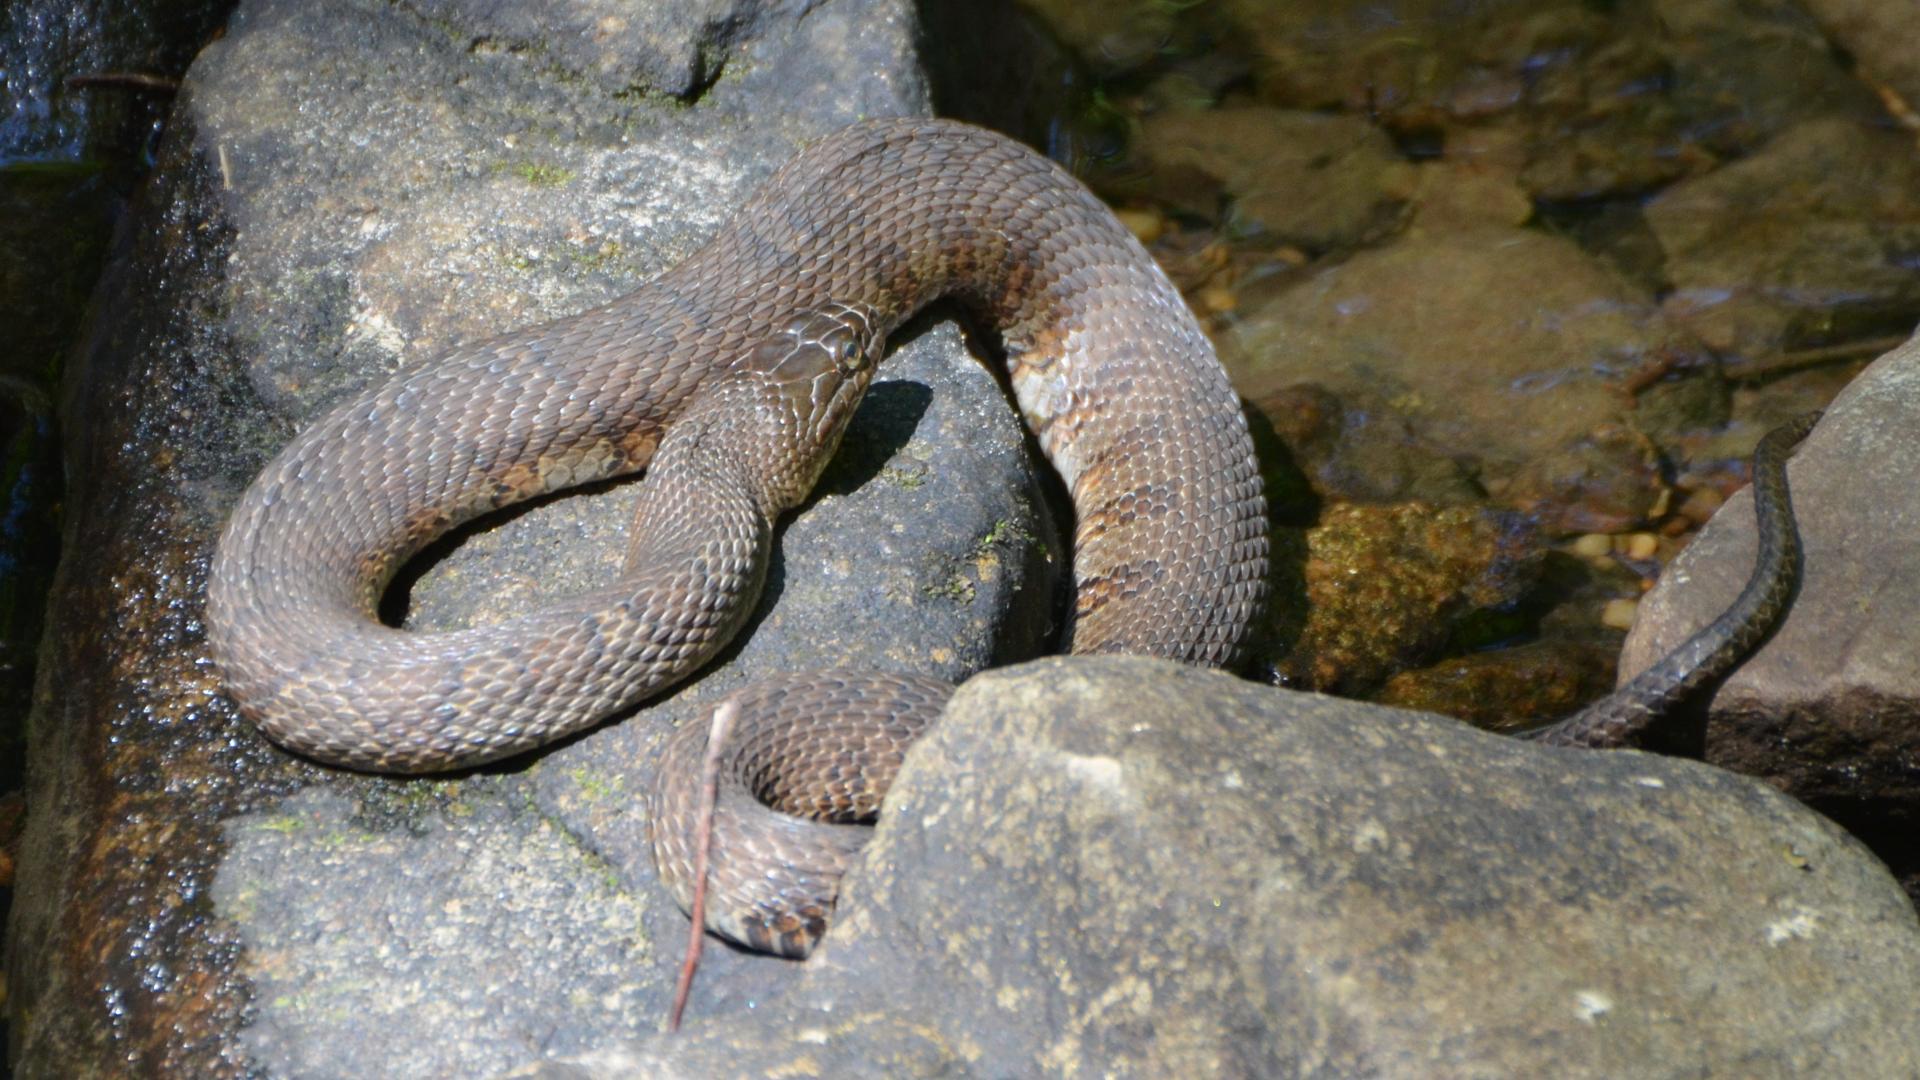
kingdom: Animalia
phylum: Chordata
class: Squamata
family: Colubridae
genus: Nerodia
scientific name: Nerodia sipedon
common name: Northern water snake
